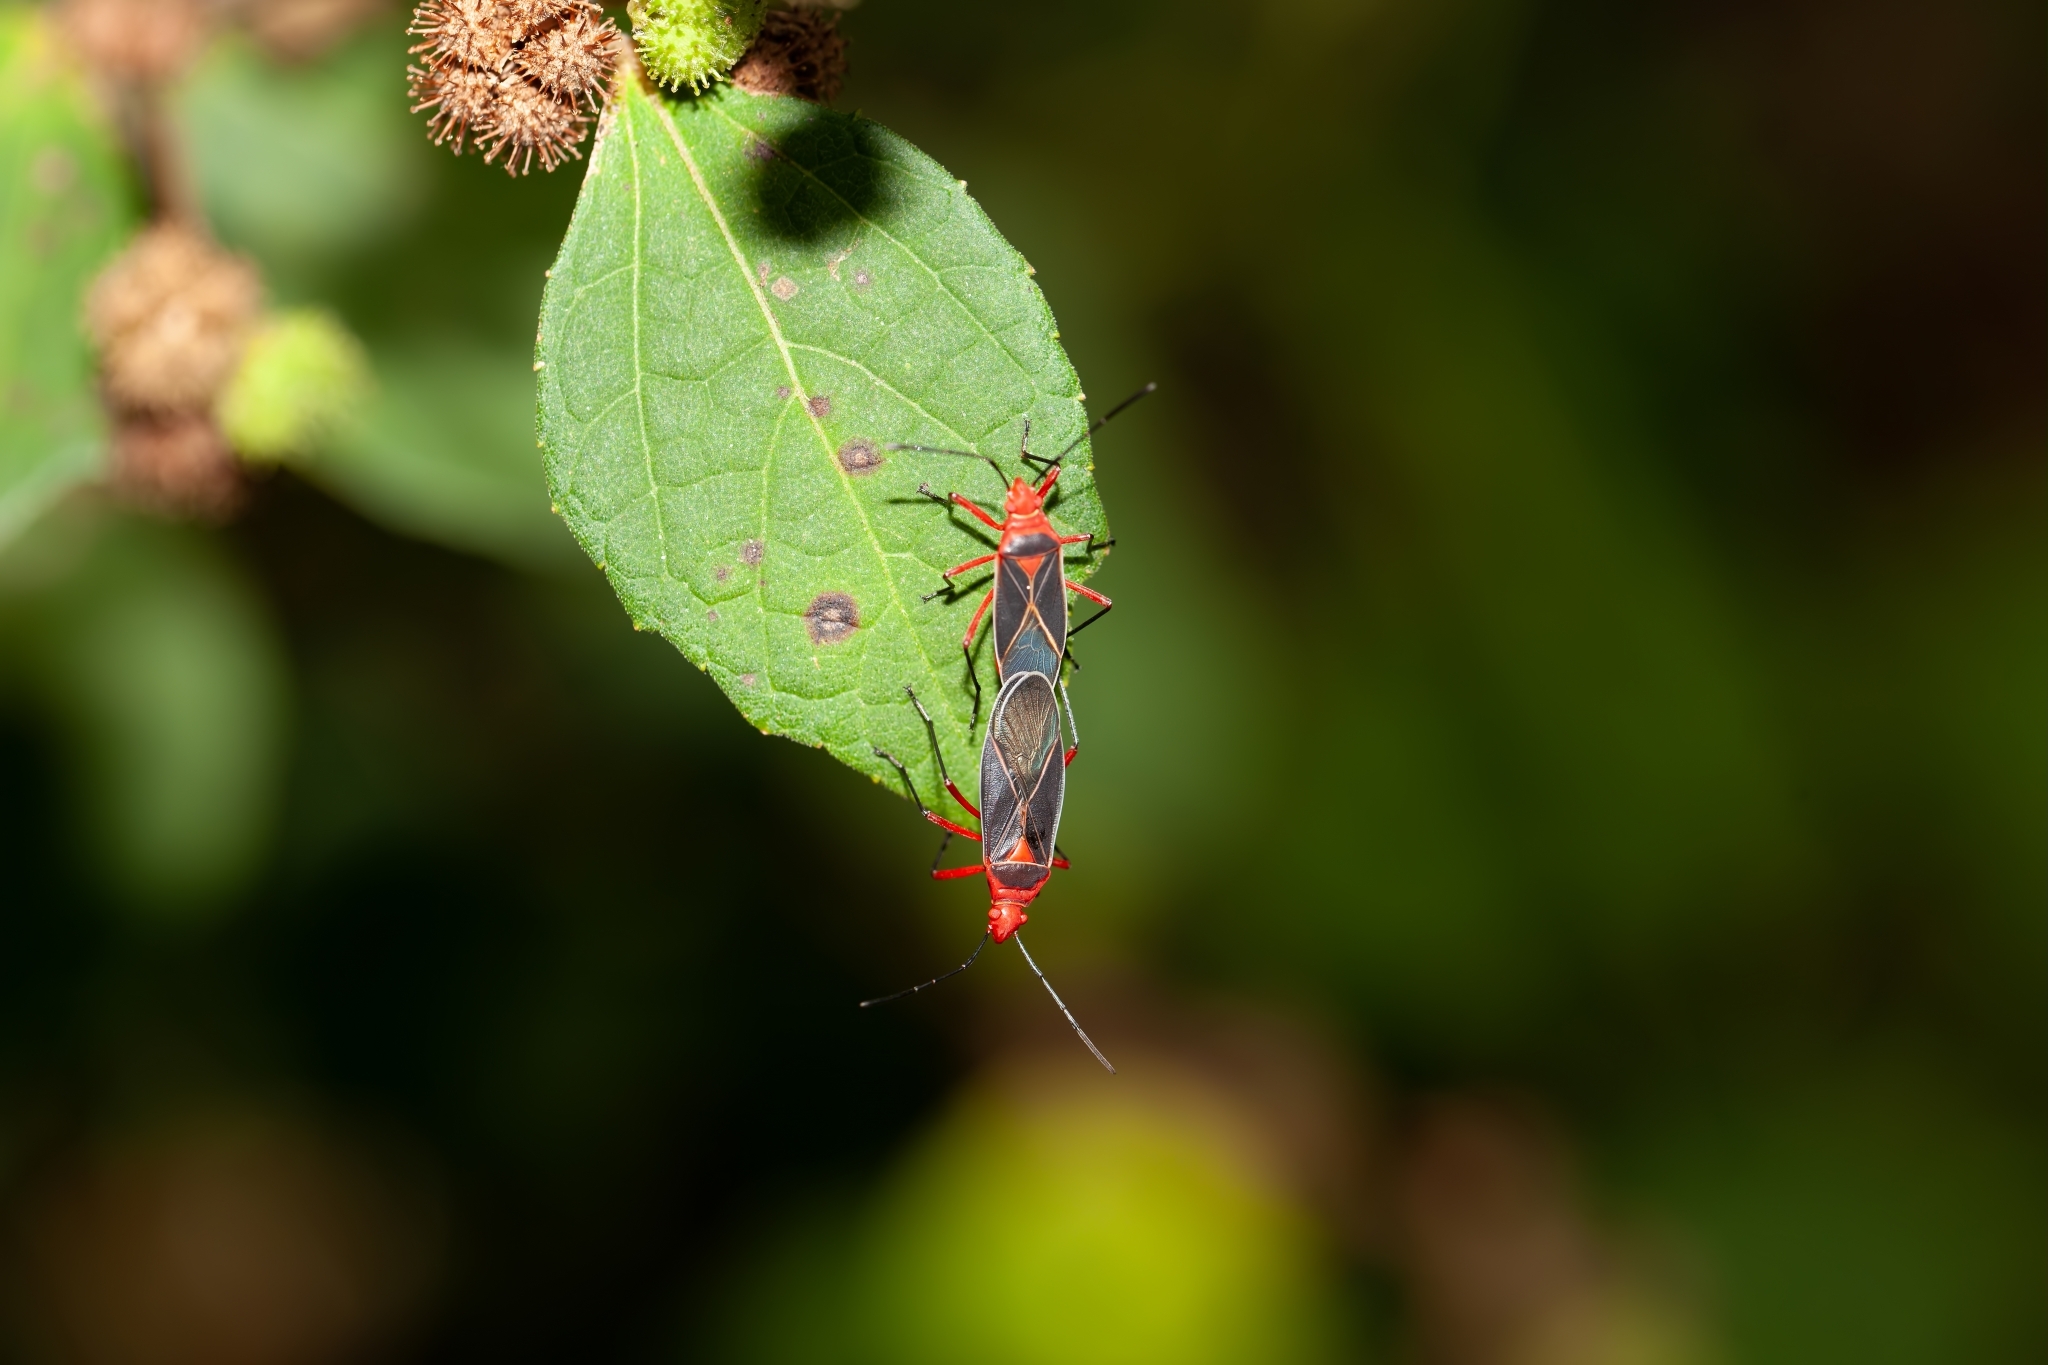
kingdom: Animalia
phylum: Arthropoda
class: Insecta
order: Hemiptera
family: Pyrrhocoridae
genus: Dysdercus
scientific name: Dysdercus suturellus
